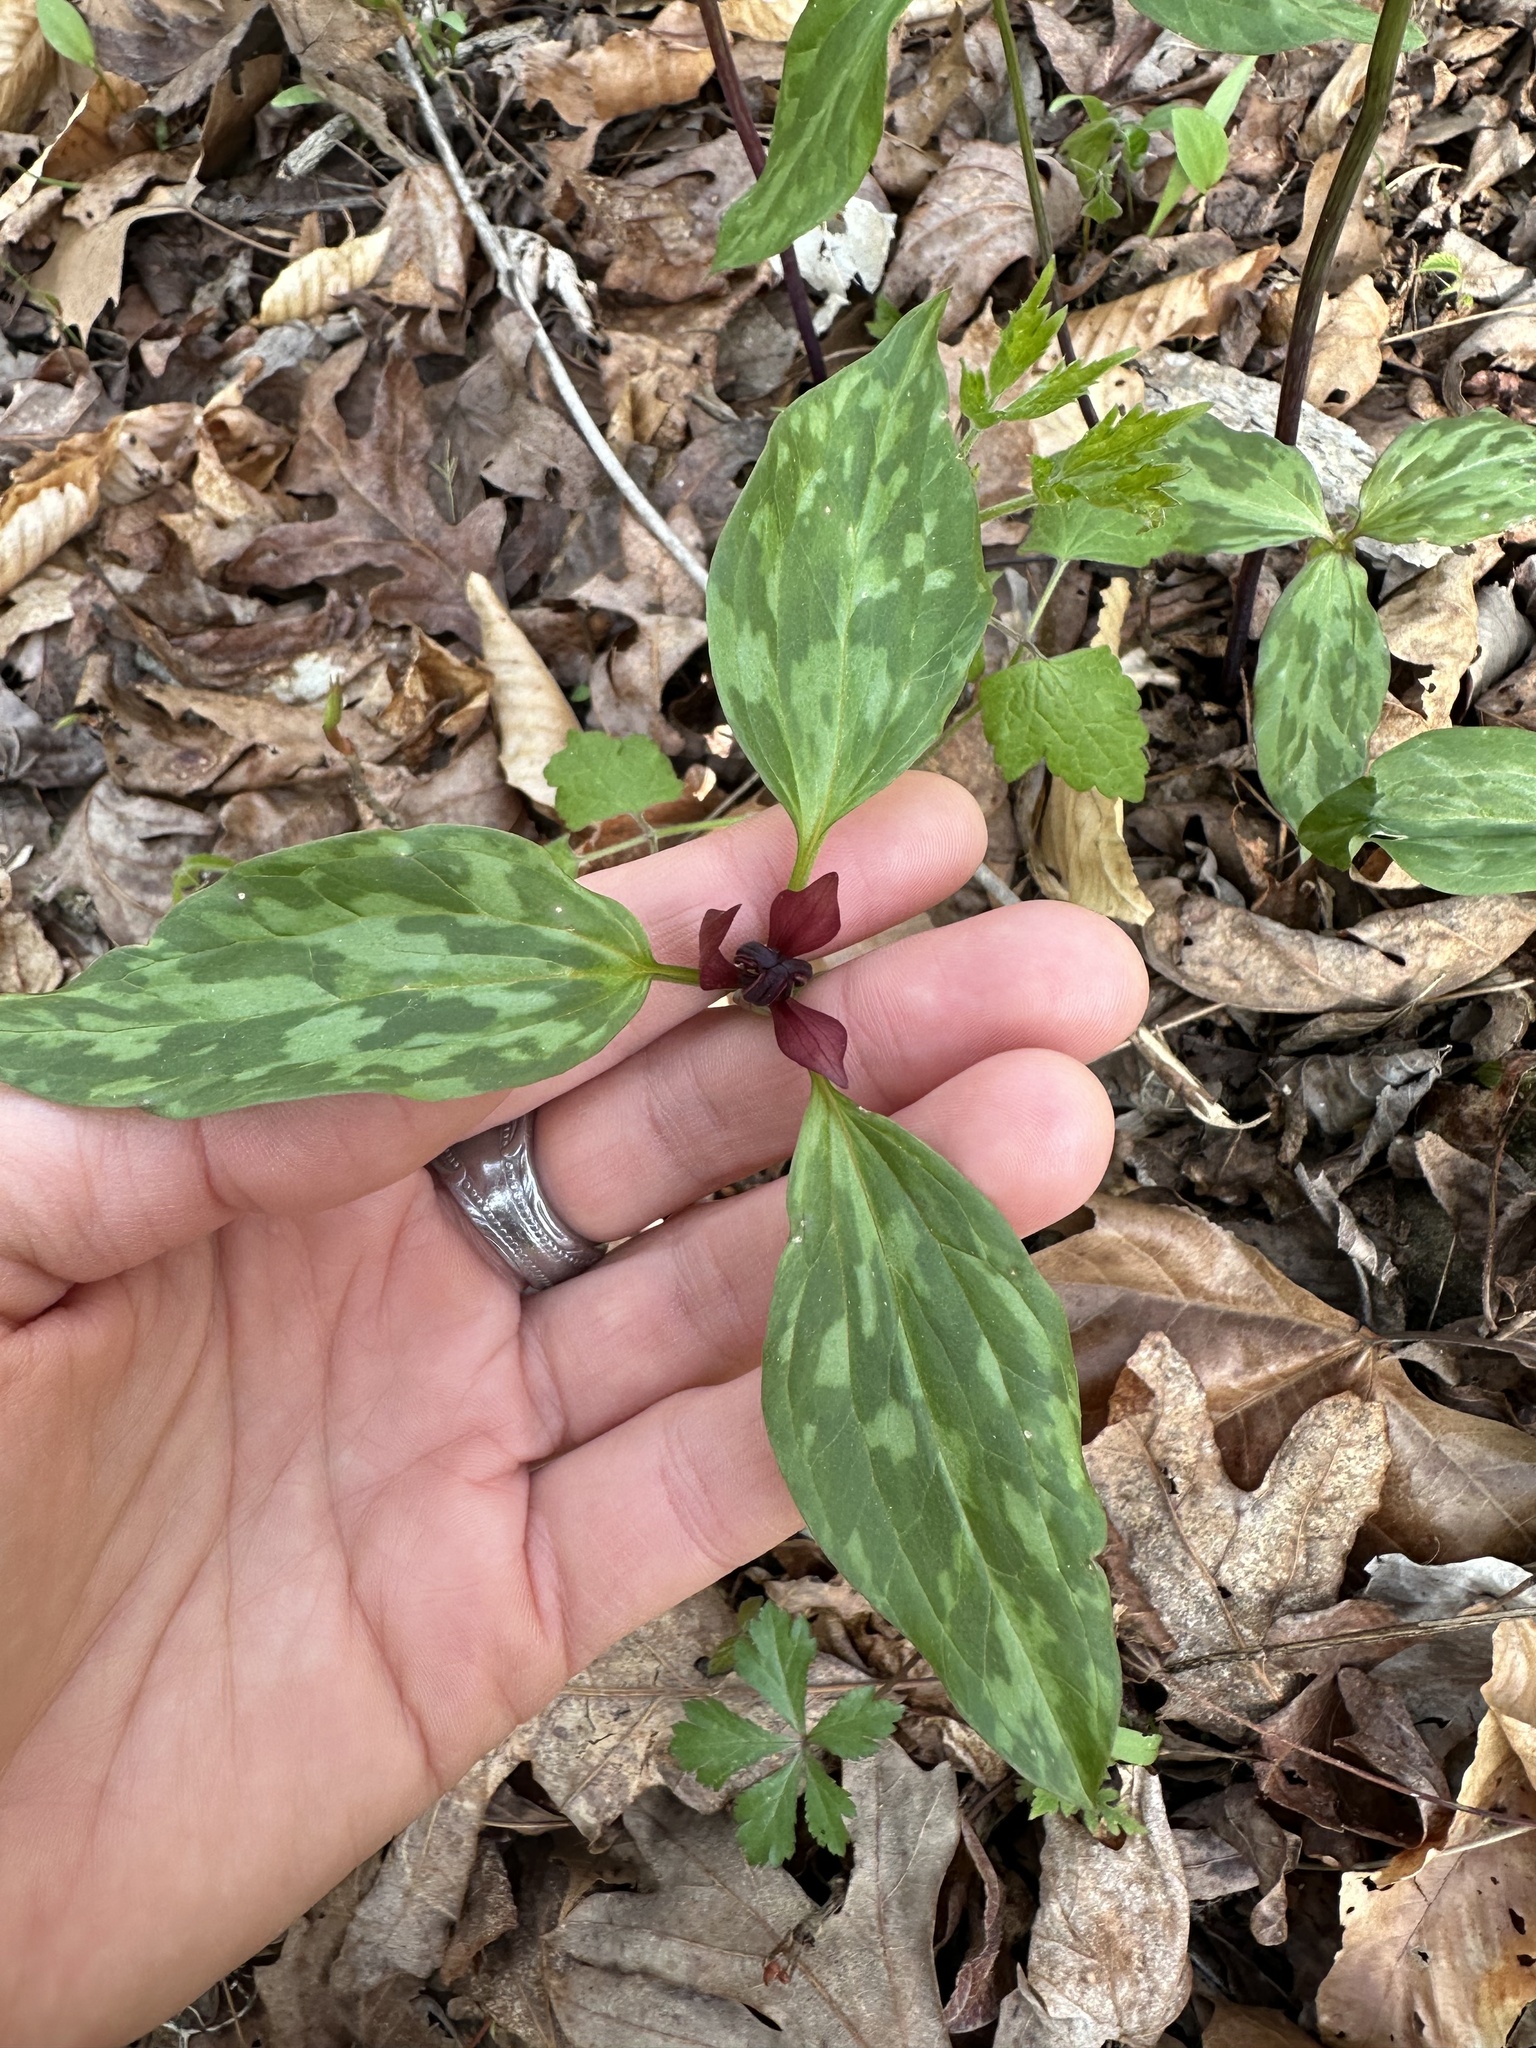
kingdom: Plantae
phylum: Tracheophyta
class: Liliopsida
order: Liliales
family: Melanthiaceae
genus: Trillium
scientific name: Trillium recurvatum
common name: Bloody butcher
